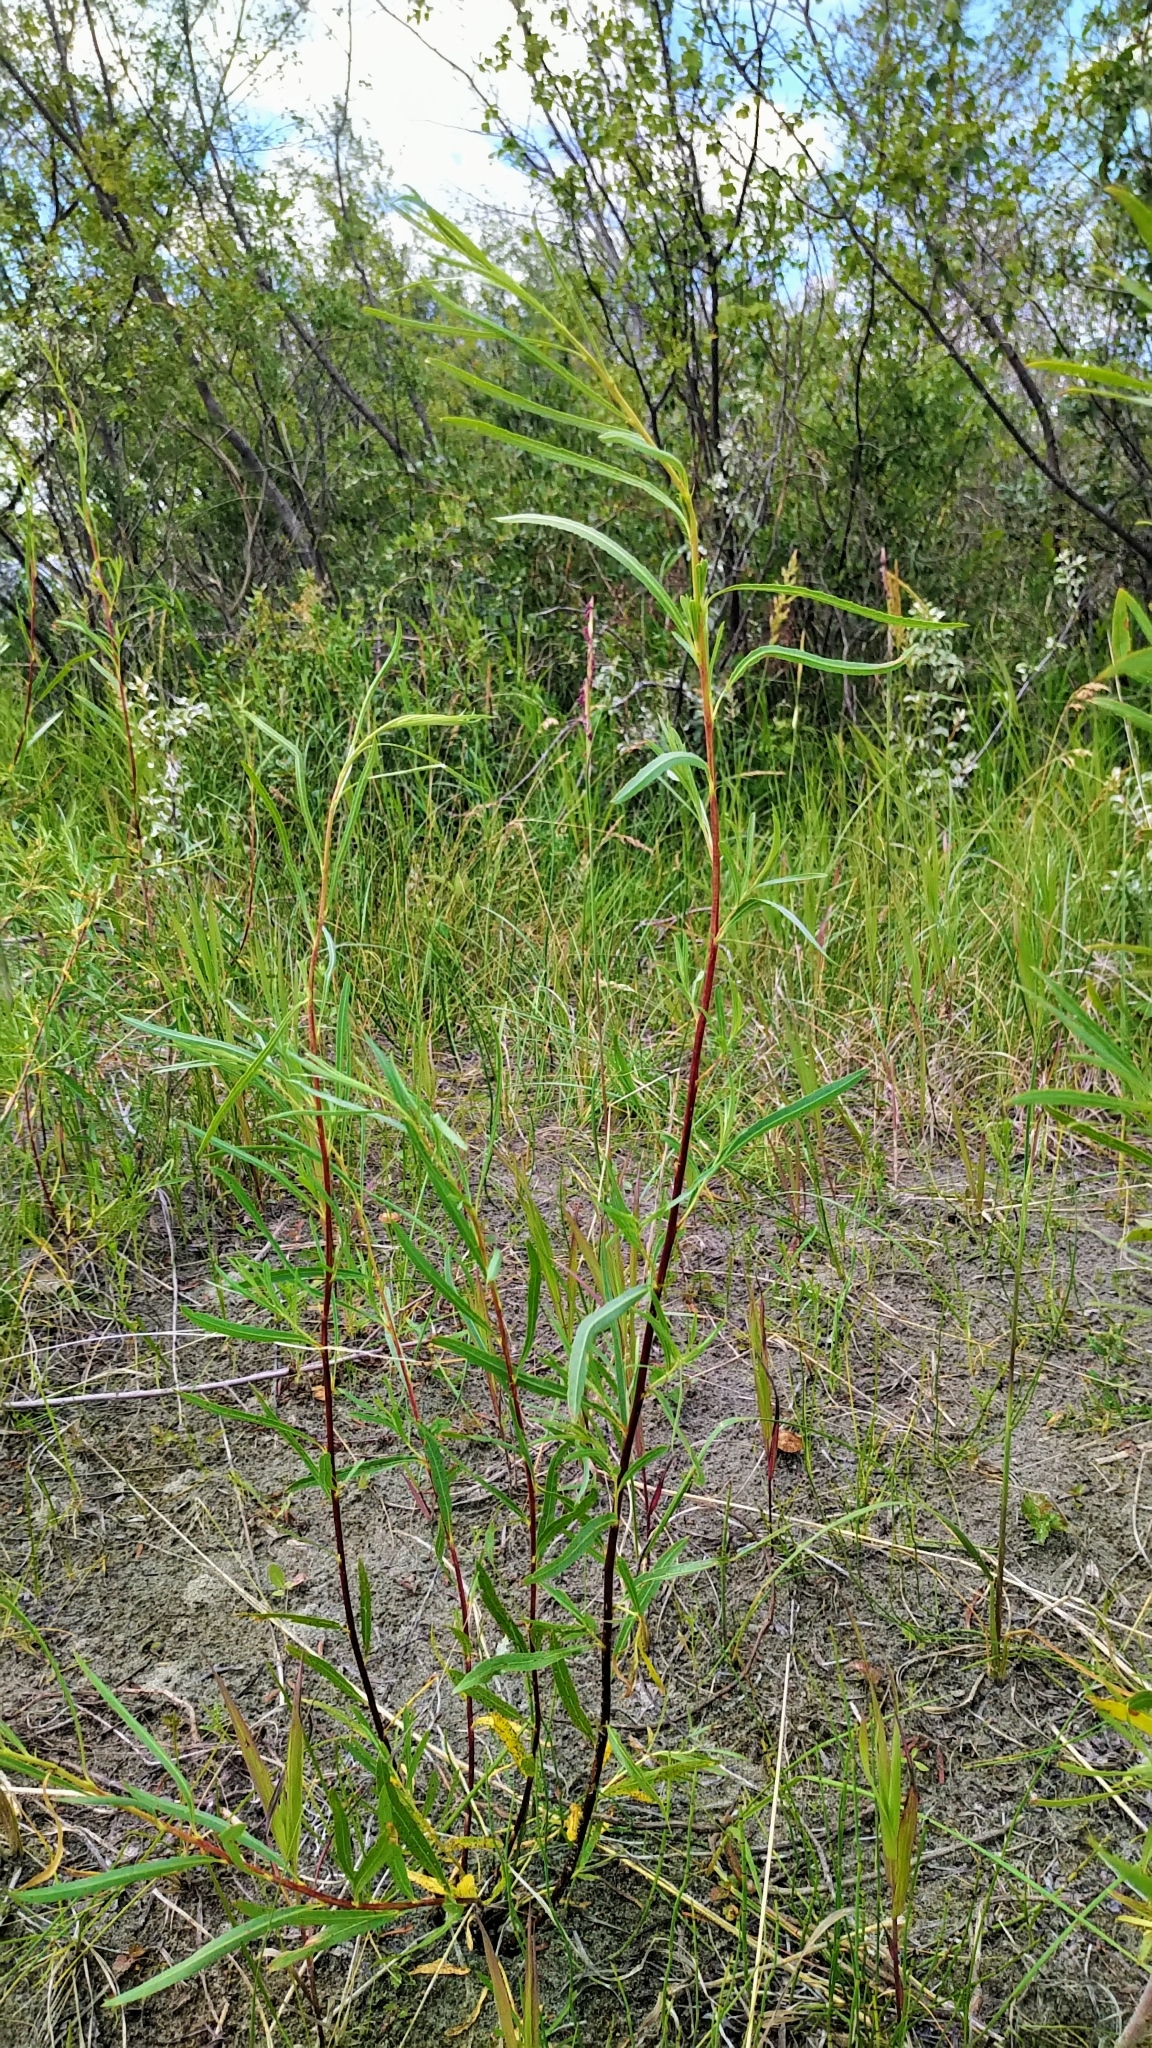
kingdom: Plantae
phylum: Tracheophyta
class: Magnoliopsida
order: Malpighiales
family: Salicaceae
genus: Salix
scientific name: Salix interior
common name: Sandbar willow
